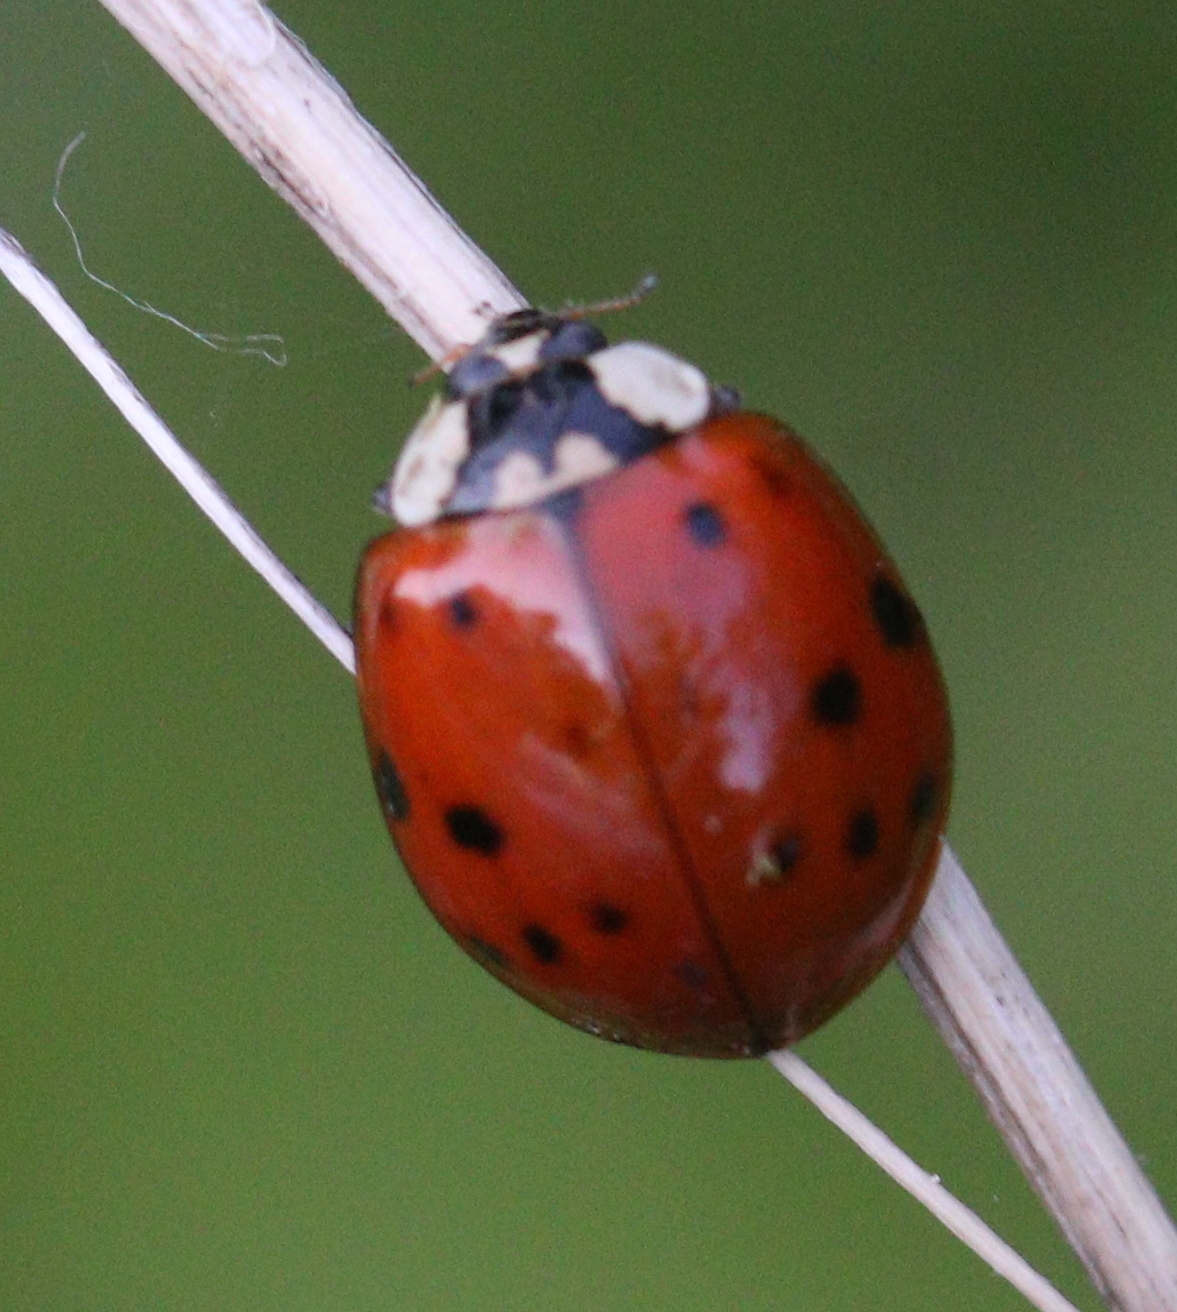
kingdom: Animalia
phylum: Arthropoda
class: Insecta
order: Coleoptera
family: Coccinellidae
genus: Harmonia
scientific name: Harmonia axyridis
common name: Harlequin ladybird
